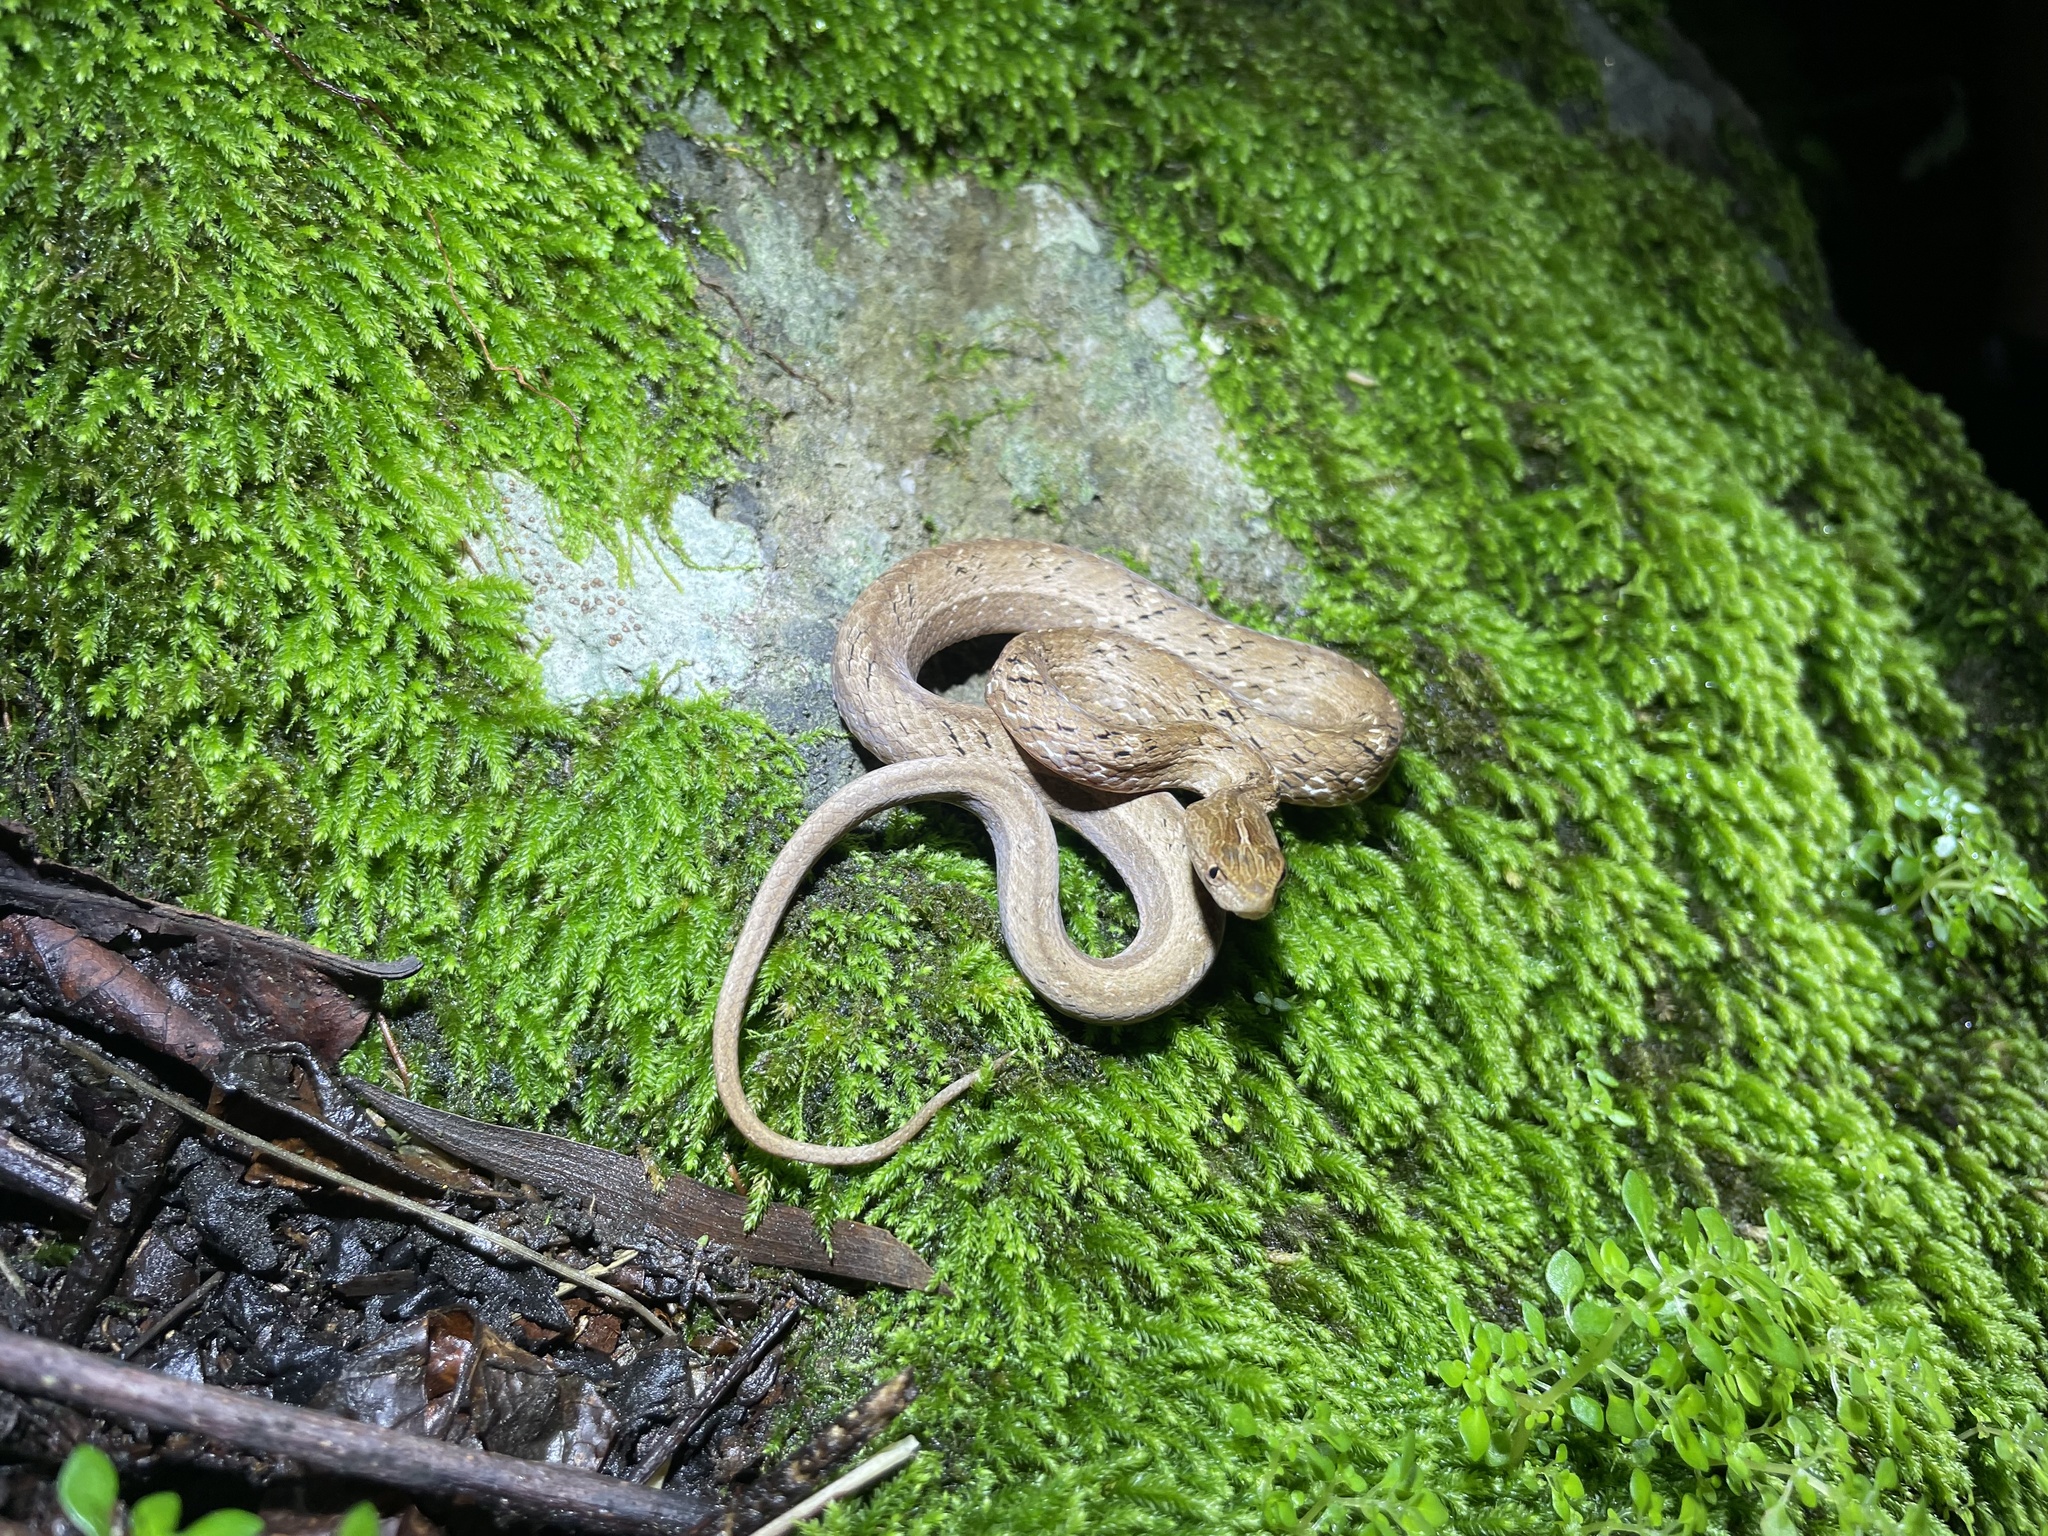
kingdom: Animalia
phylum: Chordata
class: Squamata
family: Pseudaspididae
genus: Psammodynastes
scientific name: Psammodynastes pulverulentus
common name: Common mock viper
